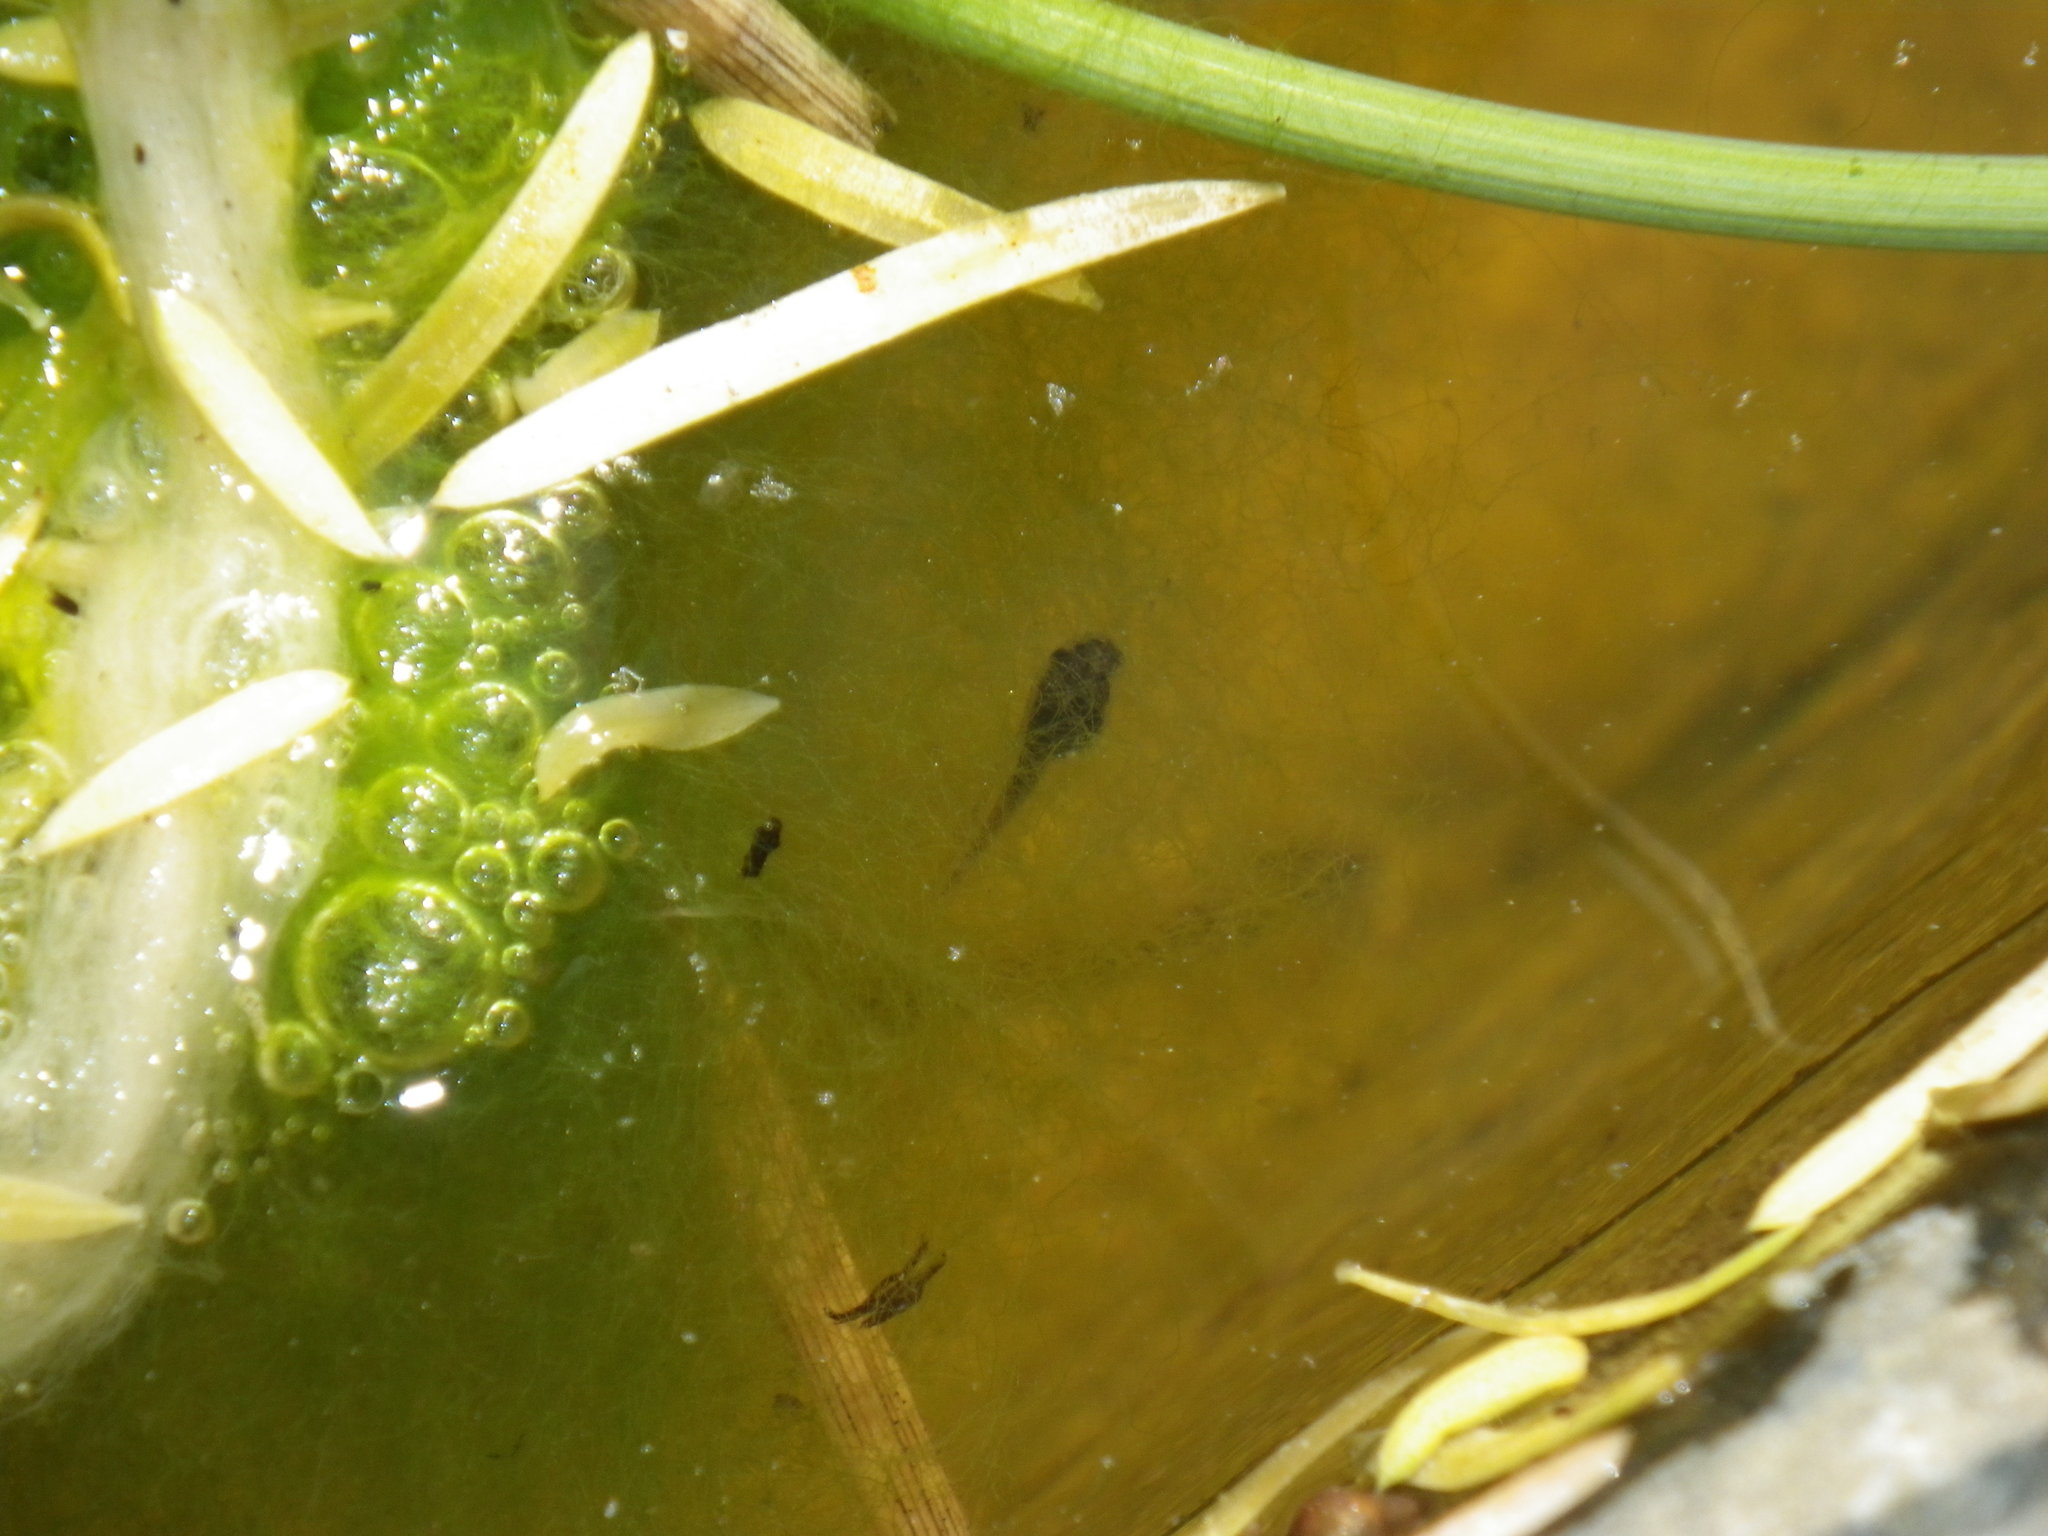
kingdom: Animalia
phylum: Chordata
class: Amphibia
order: Anura
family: Hylidae
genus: Pseudacris
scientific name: Pseudacris regilla
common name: Pacific chorus frog
